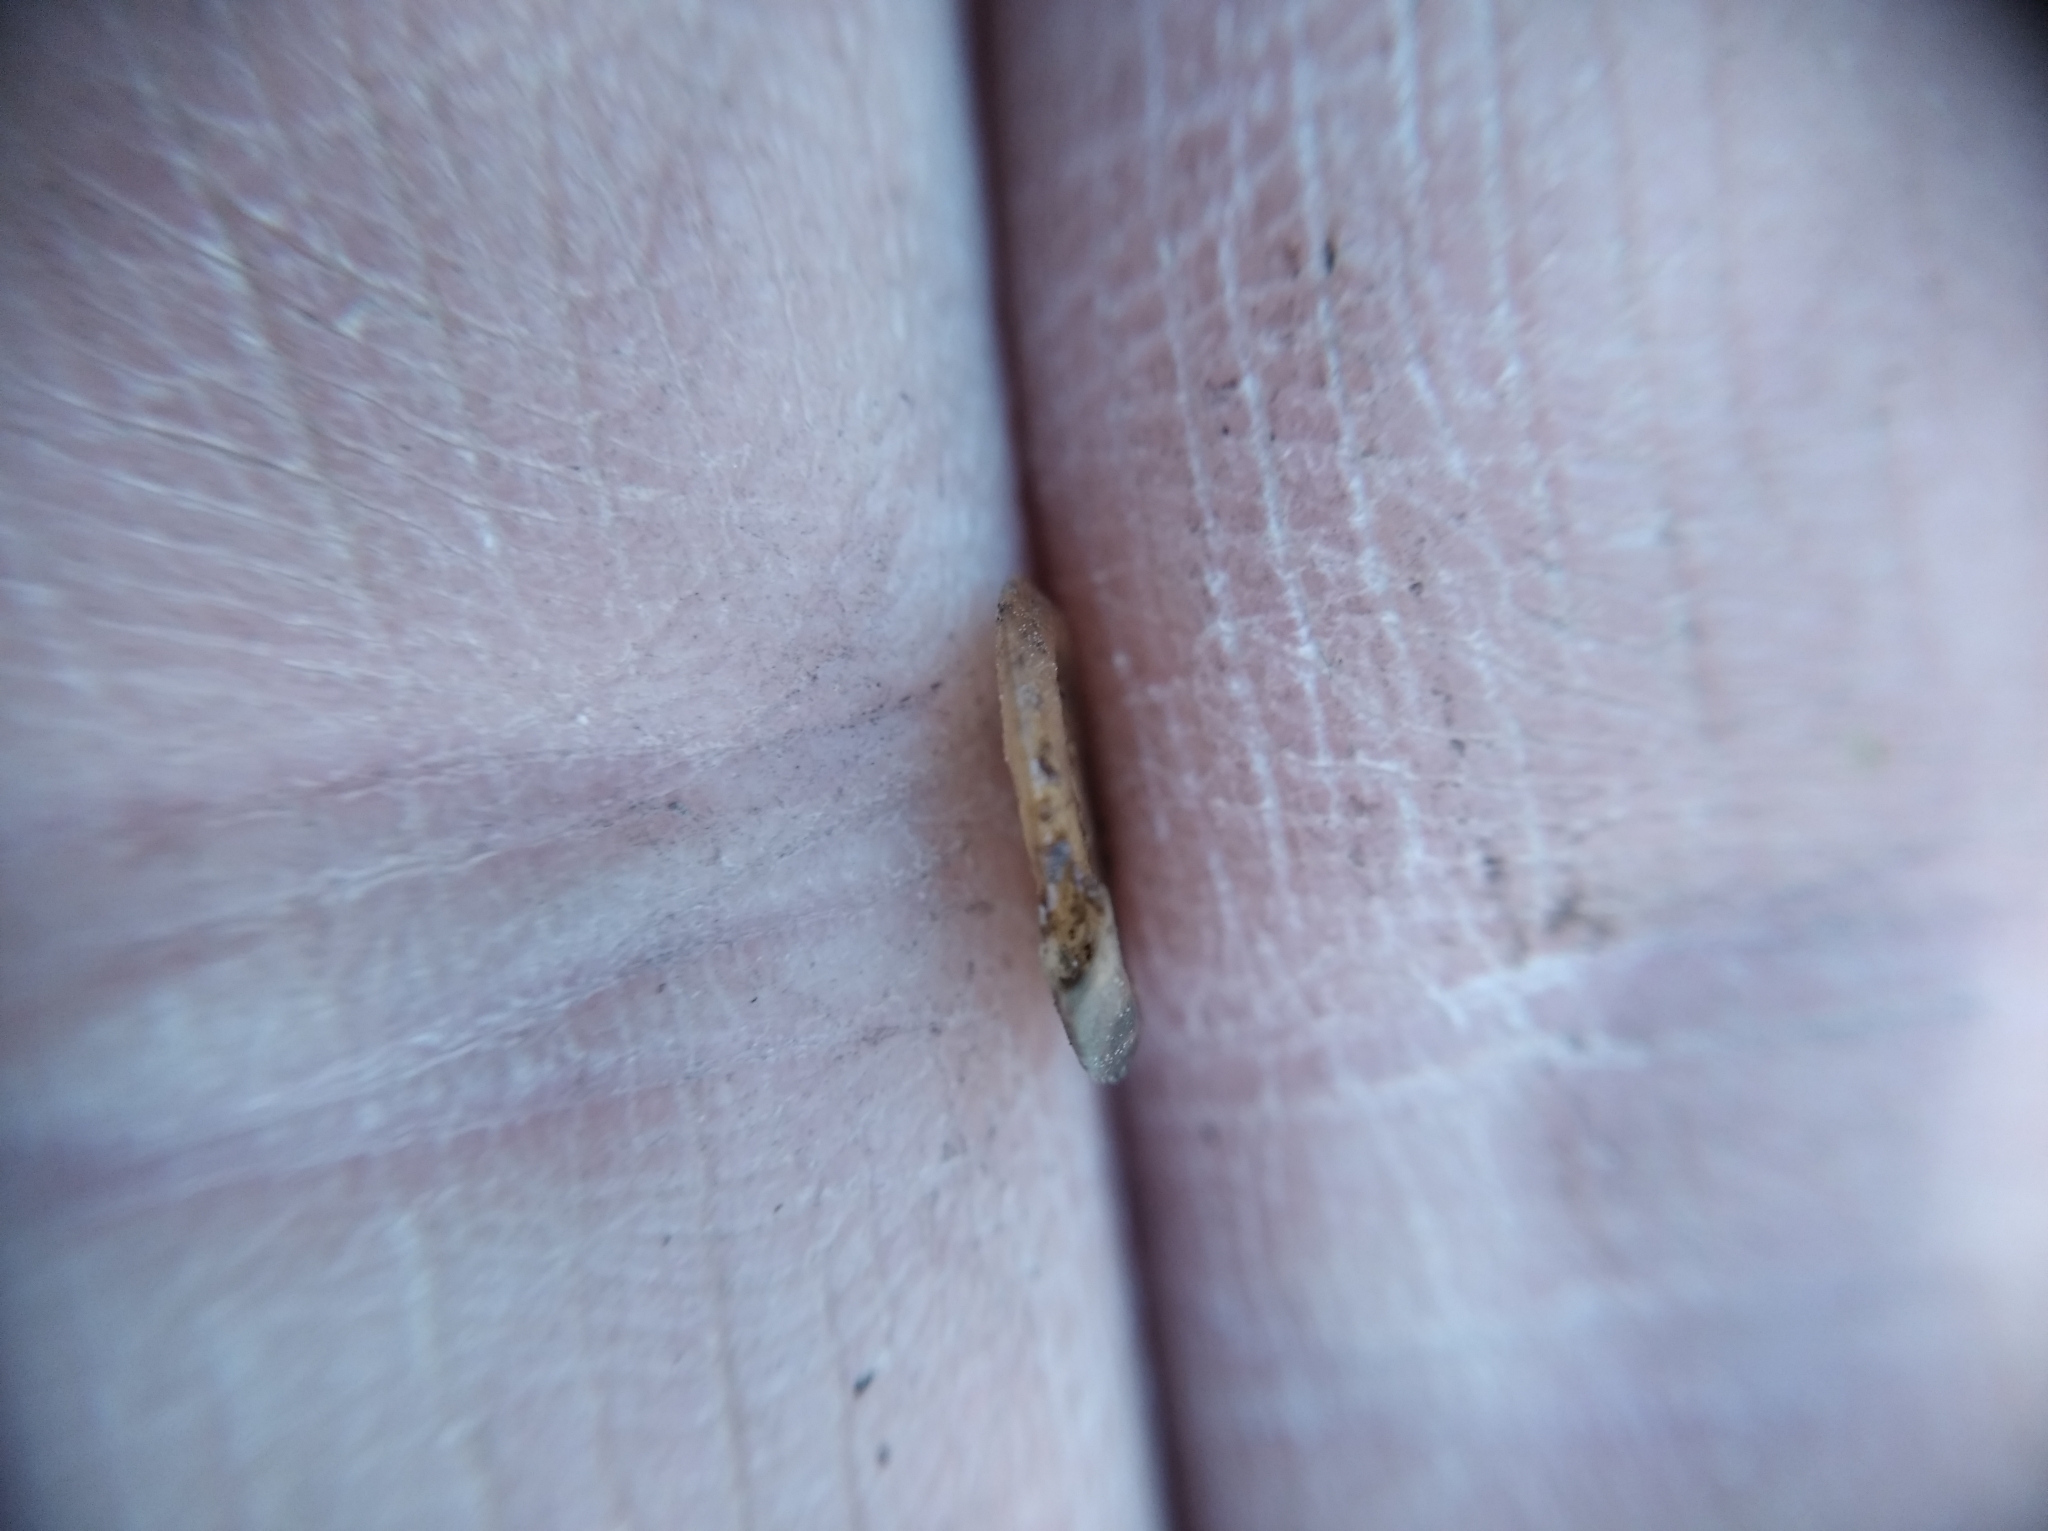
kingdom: Animalia
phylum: Mollusca
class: Gastropoda
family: Planorbidae
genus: Anisus
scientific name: Anisus vortex
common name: Whirlpool ram's horn snail
